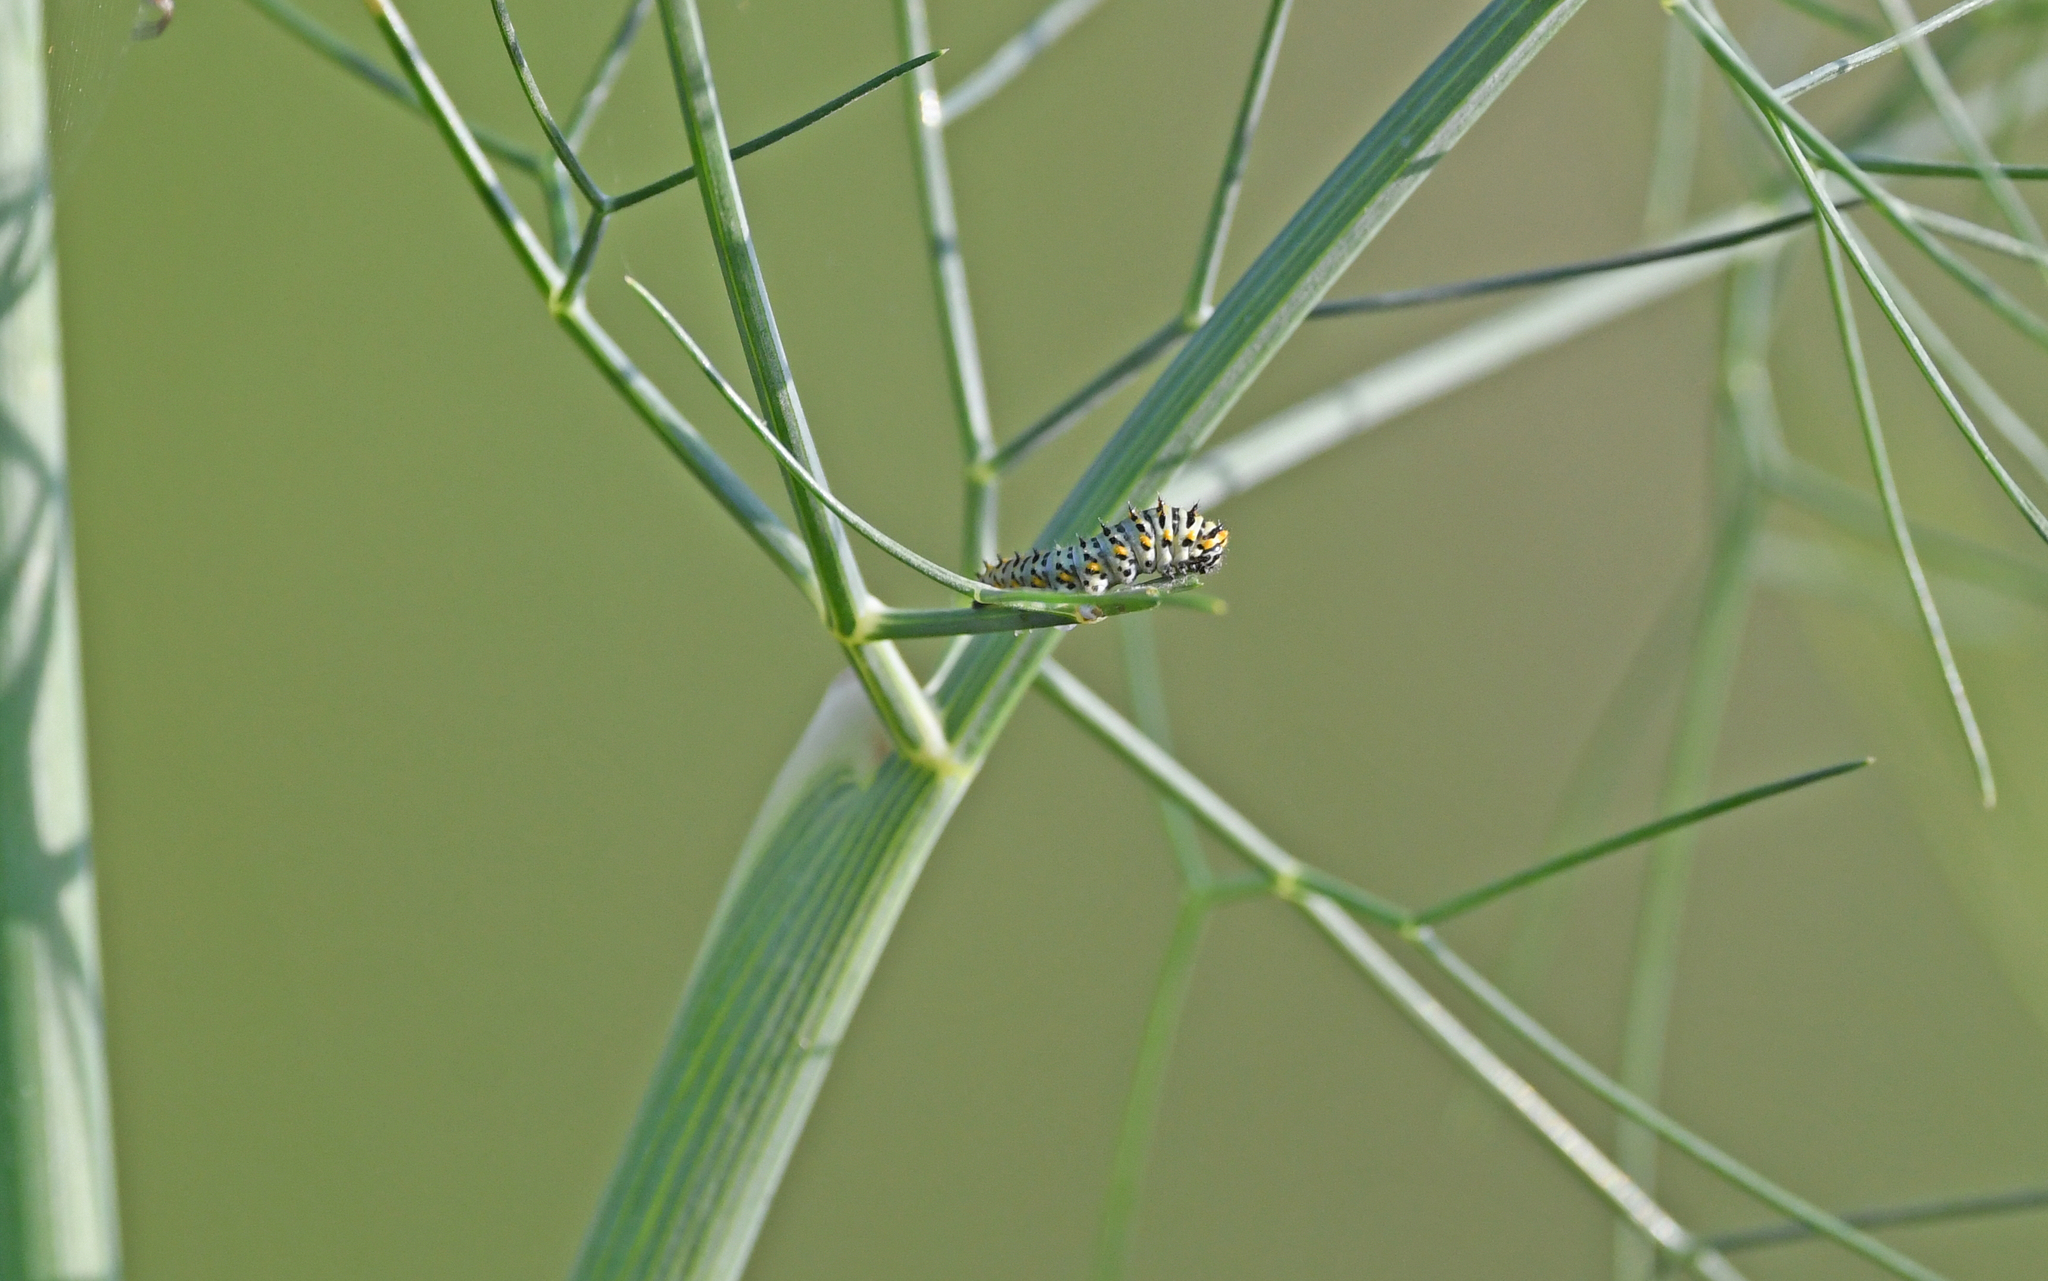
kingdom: Animalia
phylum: Arthropoda
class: Insecta
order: Lepidoptera
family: Papilionidae
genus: Papilio
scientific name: Papilio hospiton
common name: Corsican swallowtail
